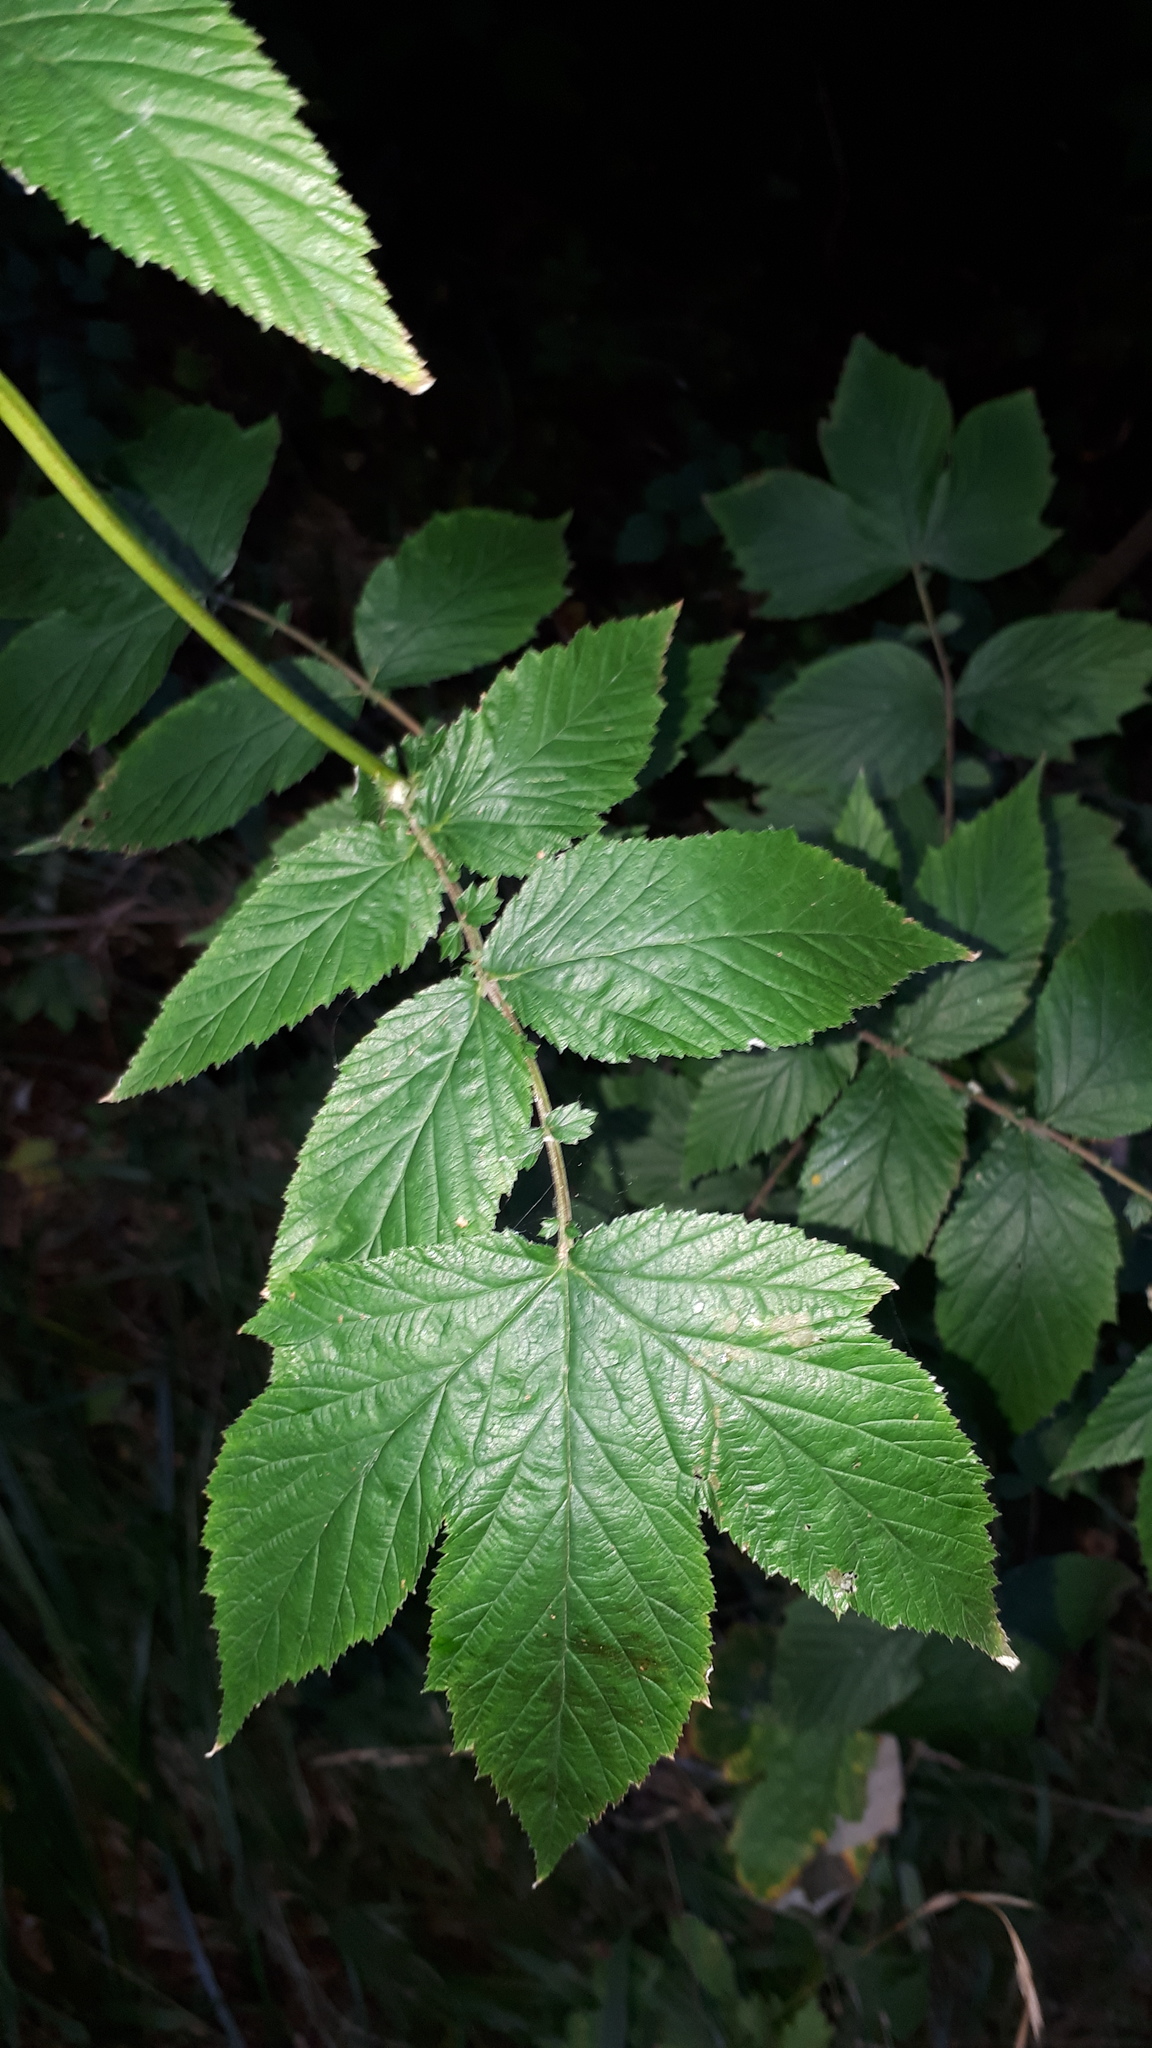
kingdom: Plantae
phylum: Tracheophyta
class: Magnoliopsida
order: Rosales
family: Rosaceae
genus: Filipendula
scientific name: Filipendula ulmaria
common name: Meadowsweet
